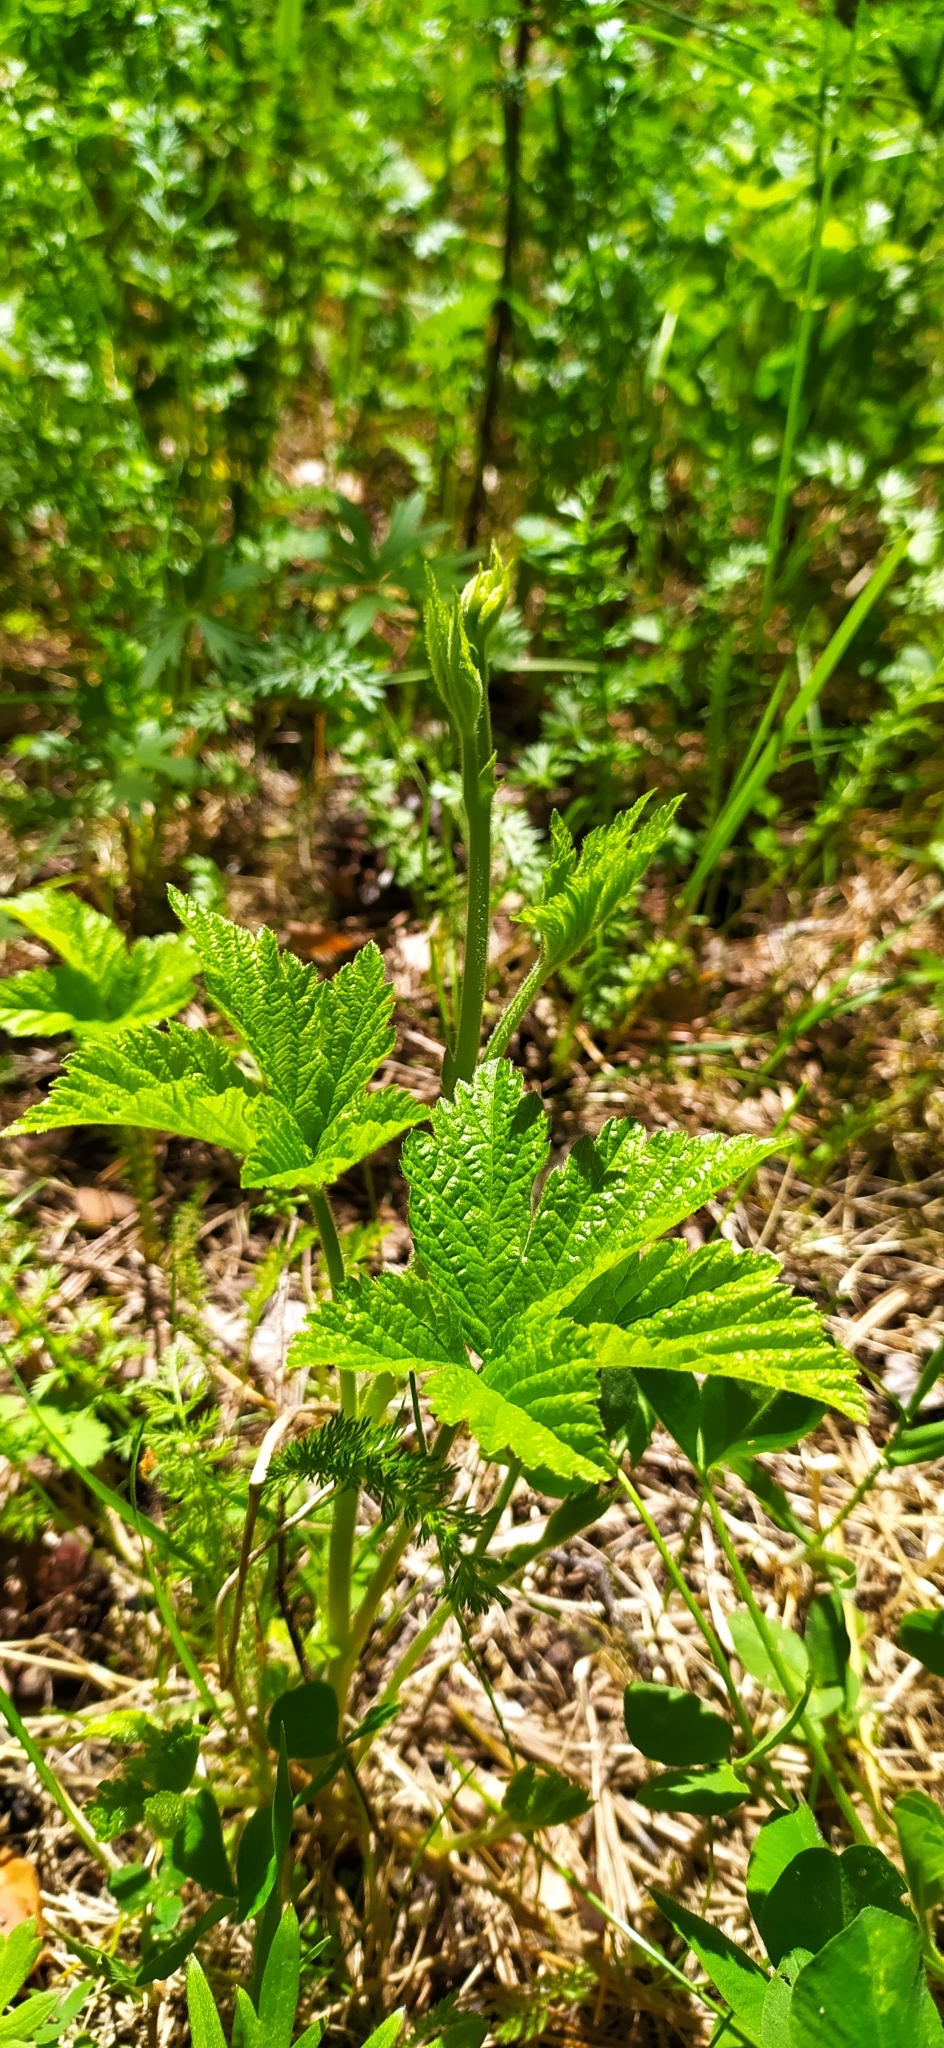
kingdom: Plantae
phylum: Tracheophyta
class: Magnoliopsida
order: Rosales
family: Rosaceae
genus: Rubus
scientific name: Rubus saxatilis
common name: Stone bramble
